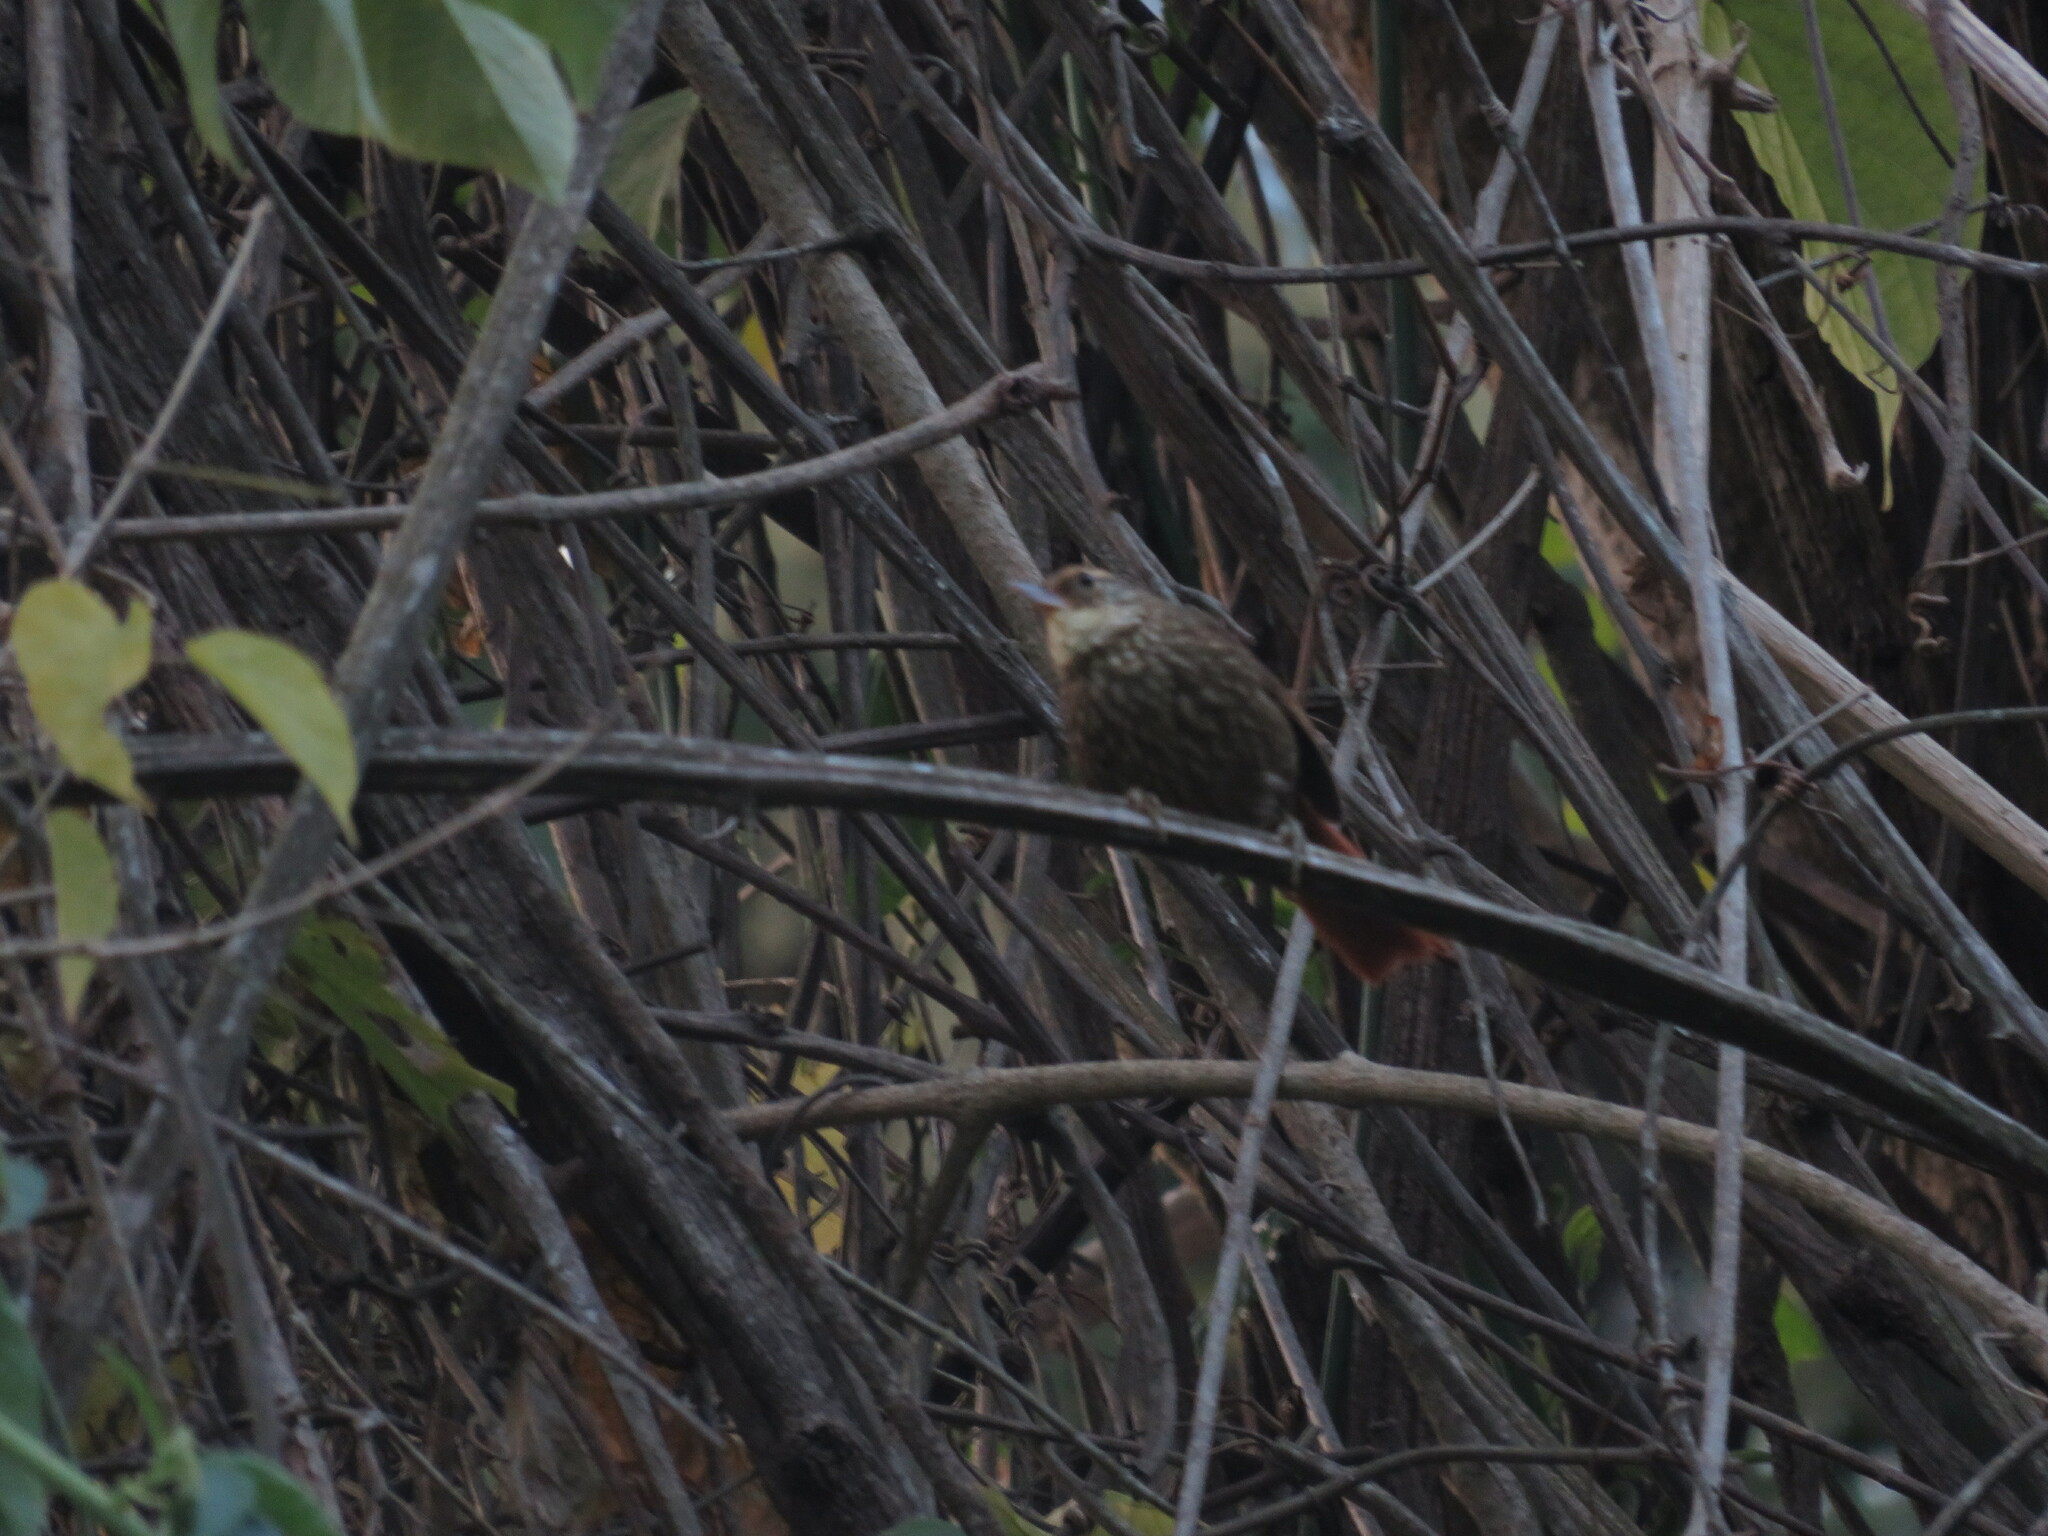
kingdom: Animalia
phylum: Chordata
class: Aves
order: Passeriformes
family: Furnariidae
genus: Syndactyla
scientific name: Syndactyla rufosuperciliata
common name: Buff-browed foliage-gleaner
